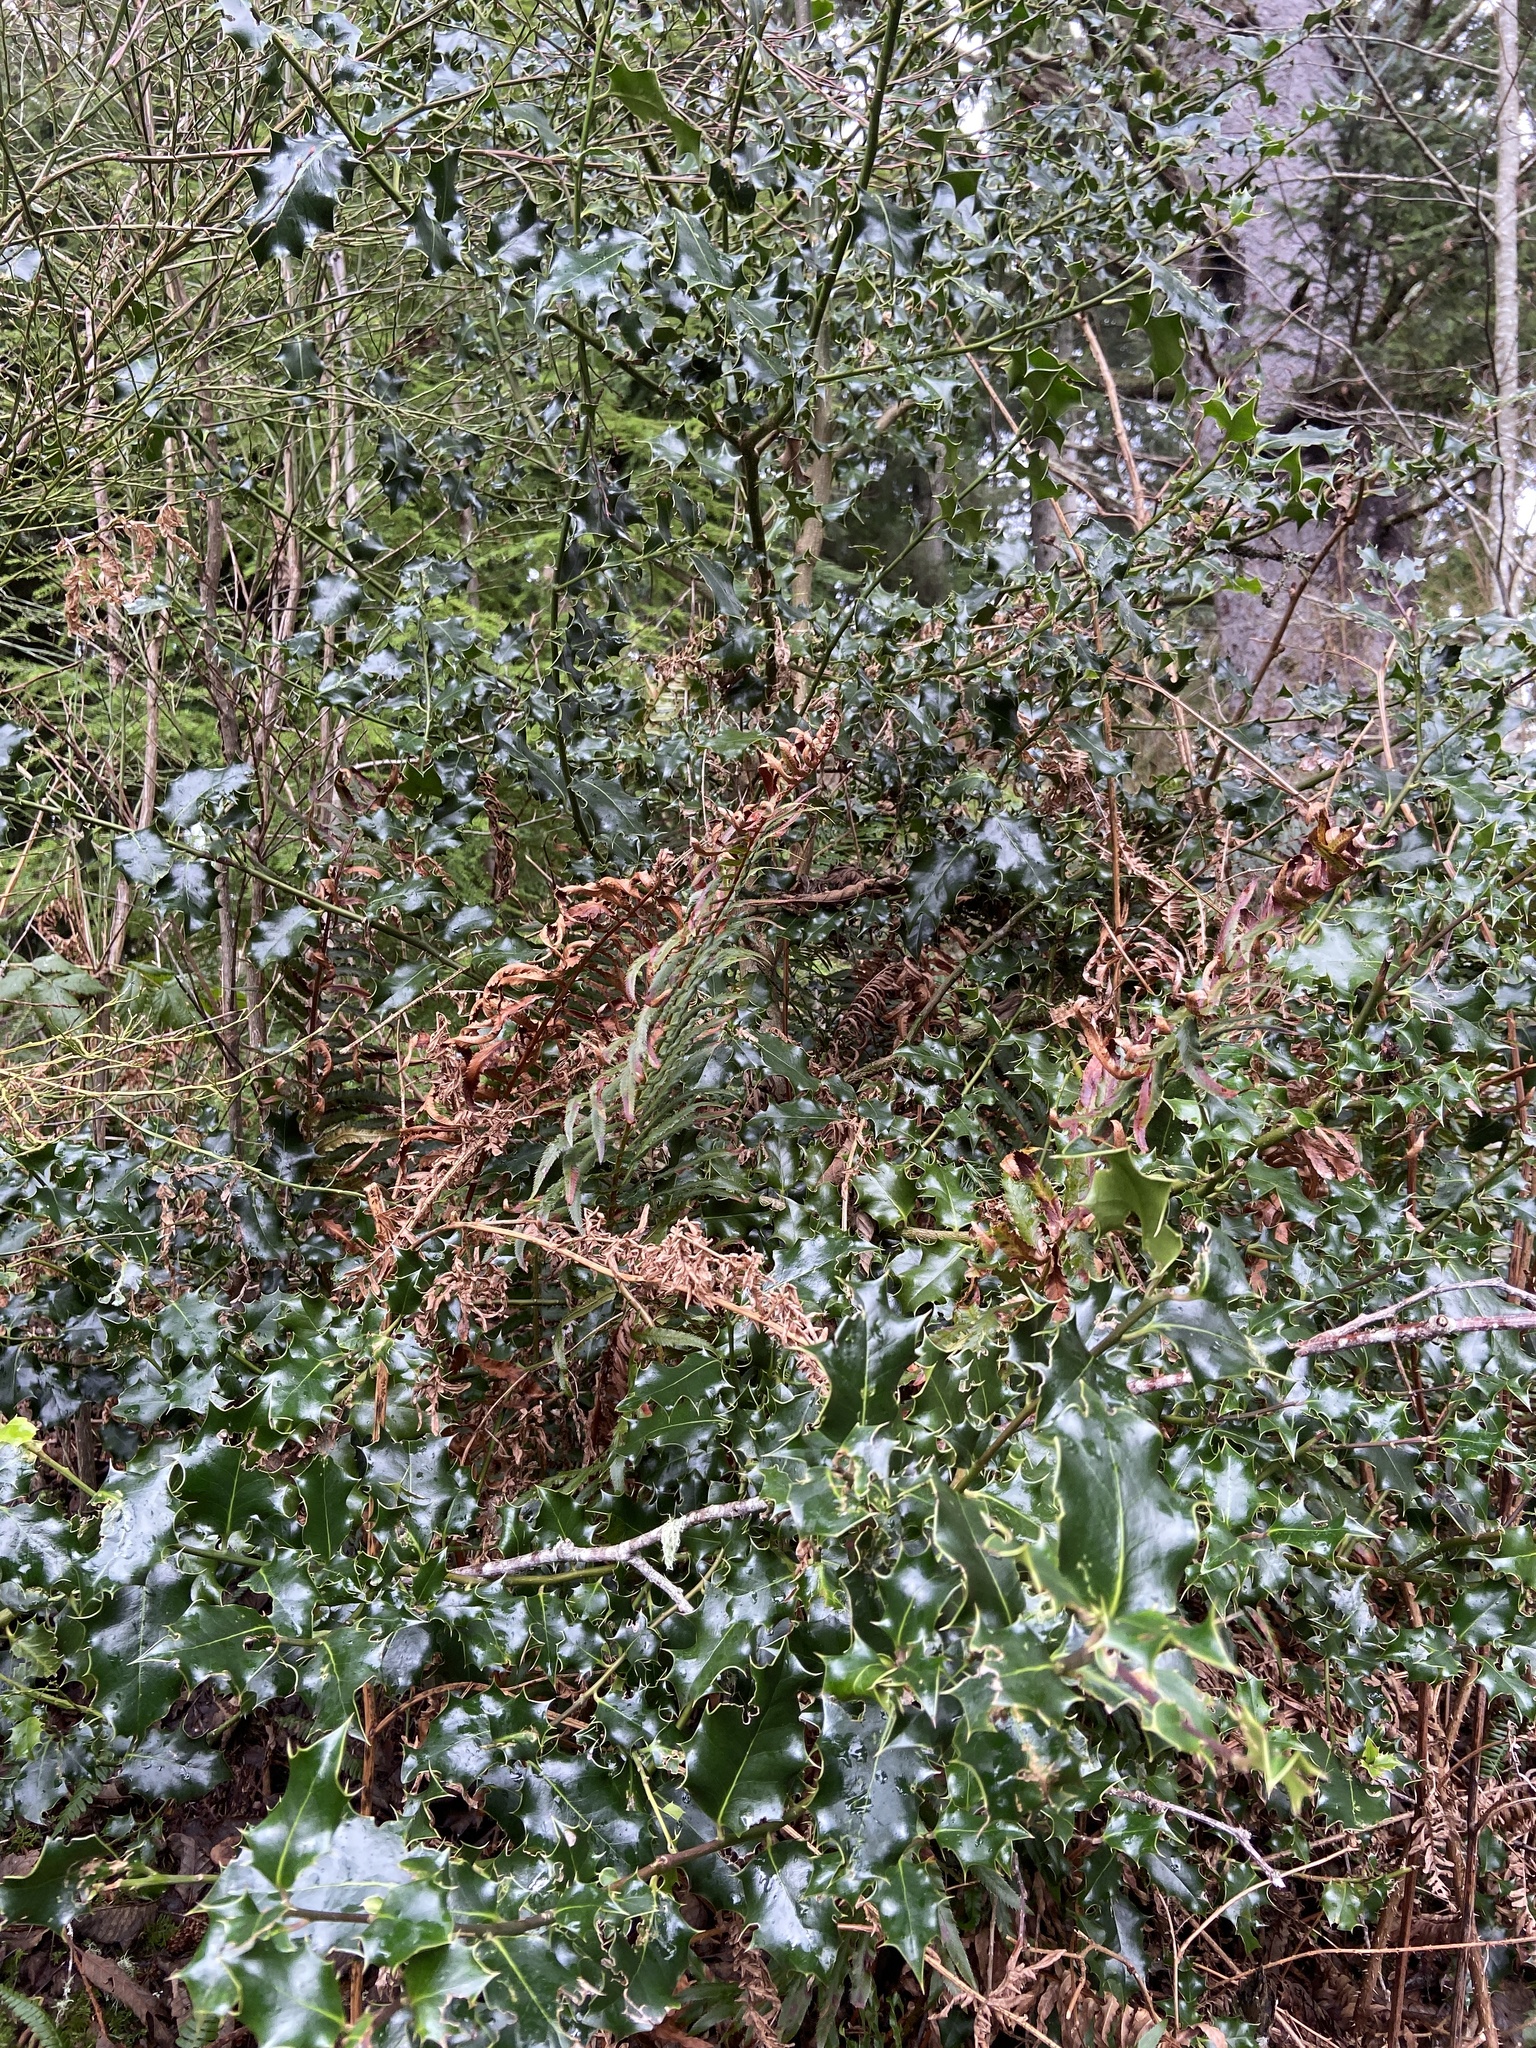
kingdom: Plantae
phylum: Tracheophyta
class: Magnoliopsida
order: Aquifoliales
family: Aquifoliaceae
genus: Ilex
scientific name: Ilex aquifolium
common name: English holly
